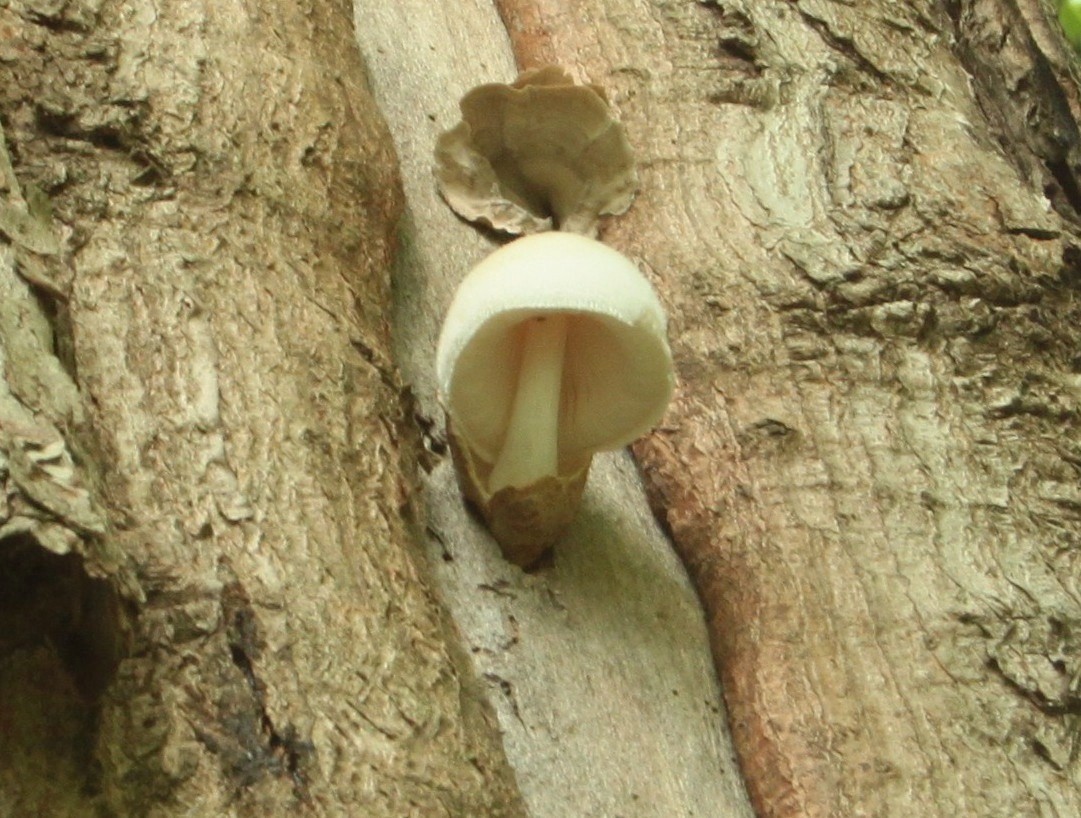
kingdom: Fungi
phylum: Basidiomycota
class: Agaricomycetes
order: Agaricales
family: Pluteaceae
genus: Volvariella
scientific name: Volvariella bombycina
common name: Silky rosegill
